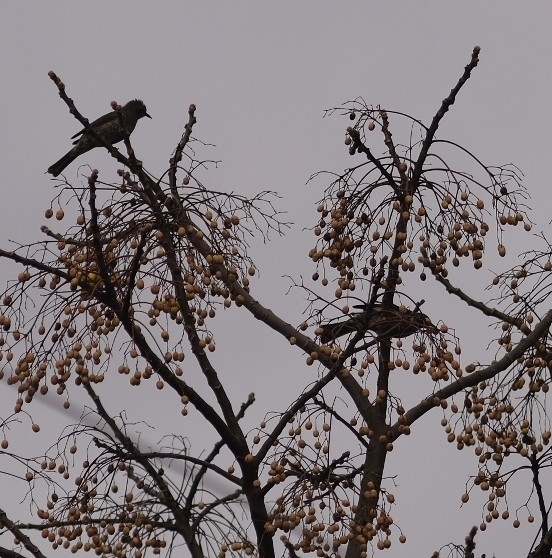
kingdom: Animalia
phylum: Chordata
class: Aves
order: Passeriformes
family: Pycnonotidae
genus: Hypsipetes
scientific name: Hypsipetes amaurotis
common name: Brown-eared bulbul
